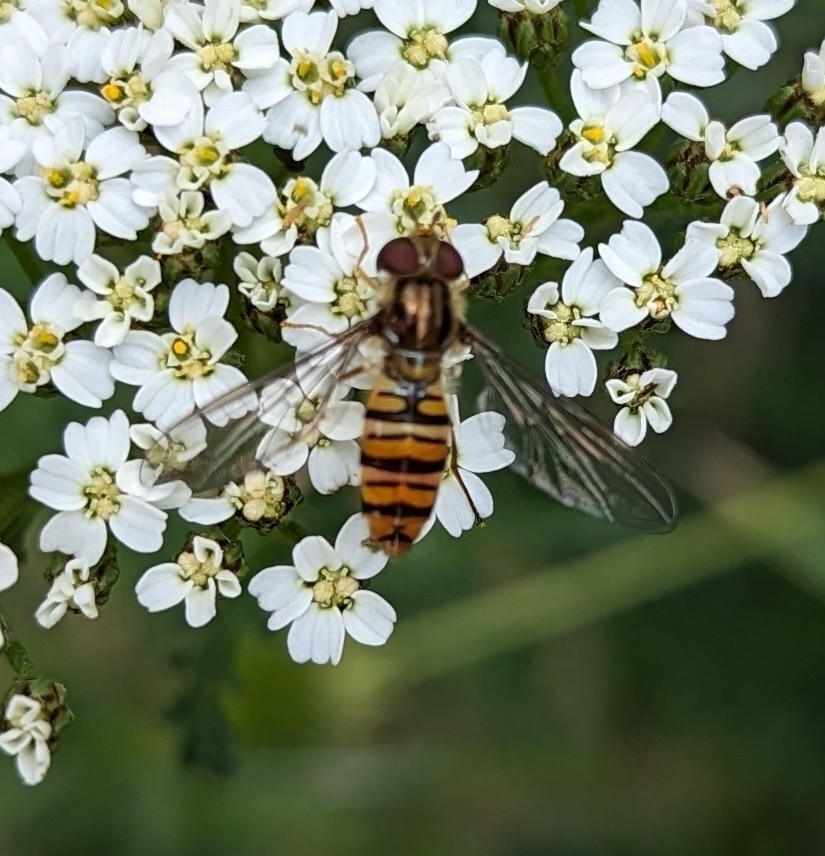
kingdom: Animalia
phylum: Arthropoda
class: Insecta
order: Diptera
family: Syrphidae
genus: Episyrphus
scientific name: Episyrphus balteatus
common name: Marmalade hoverfly
